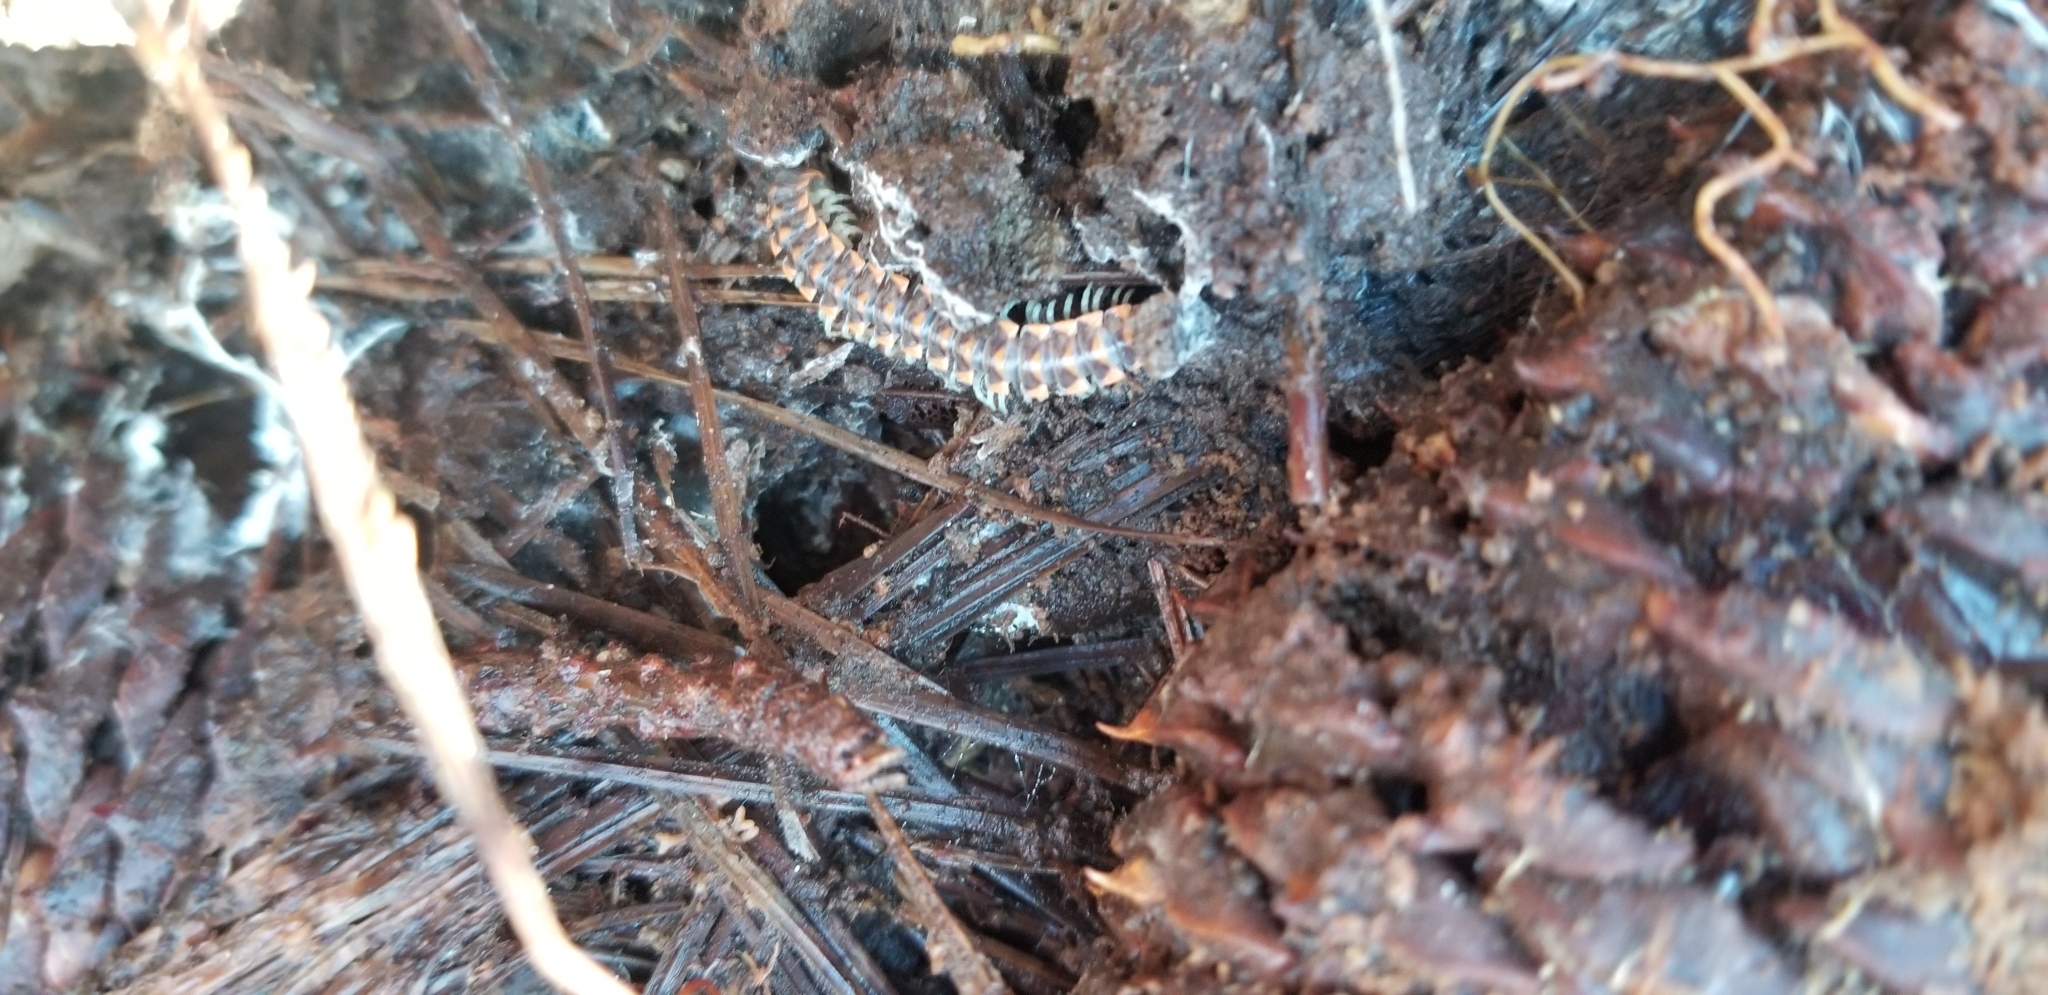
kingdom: Animalia
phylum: Arthropoda
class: Diplopoda
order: Polydesmida
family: Xystodesmidae
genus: Euryurus
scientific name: Euryurus maculatus
